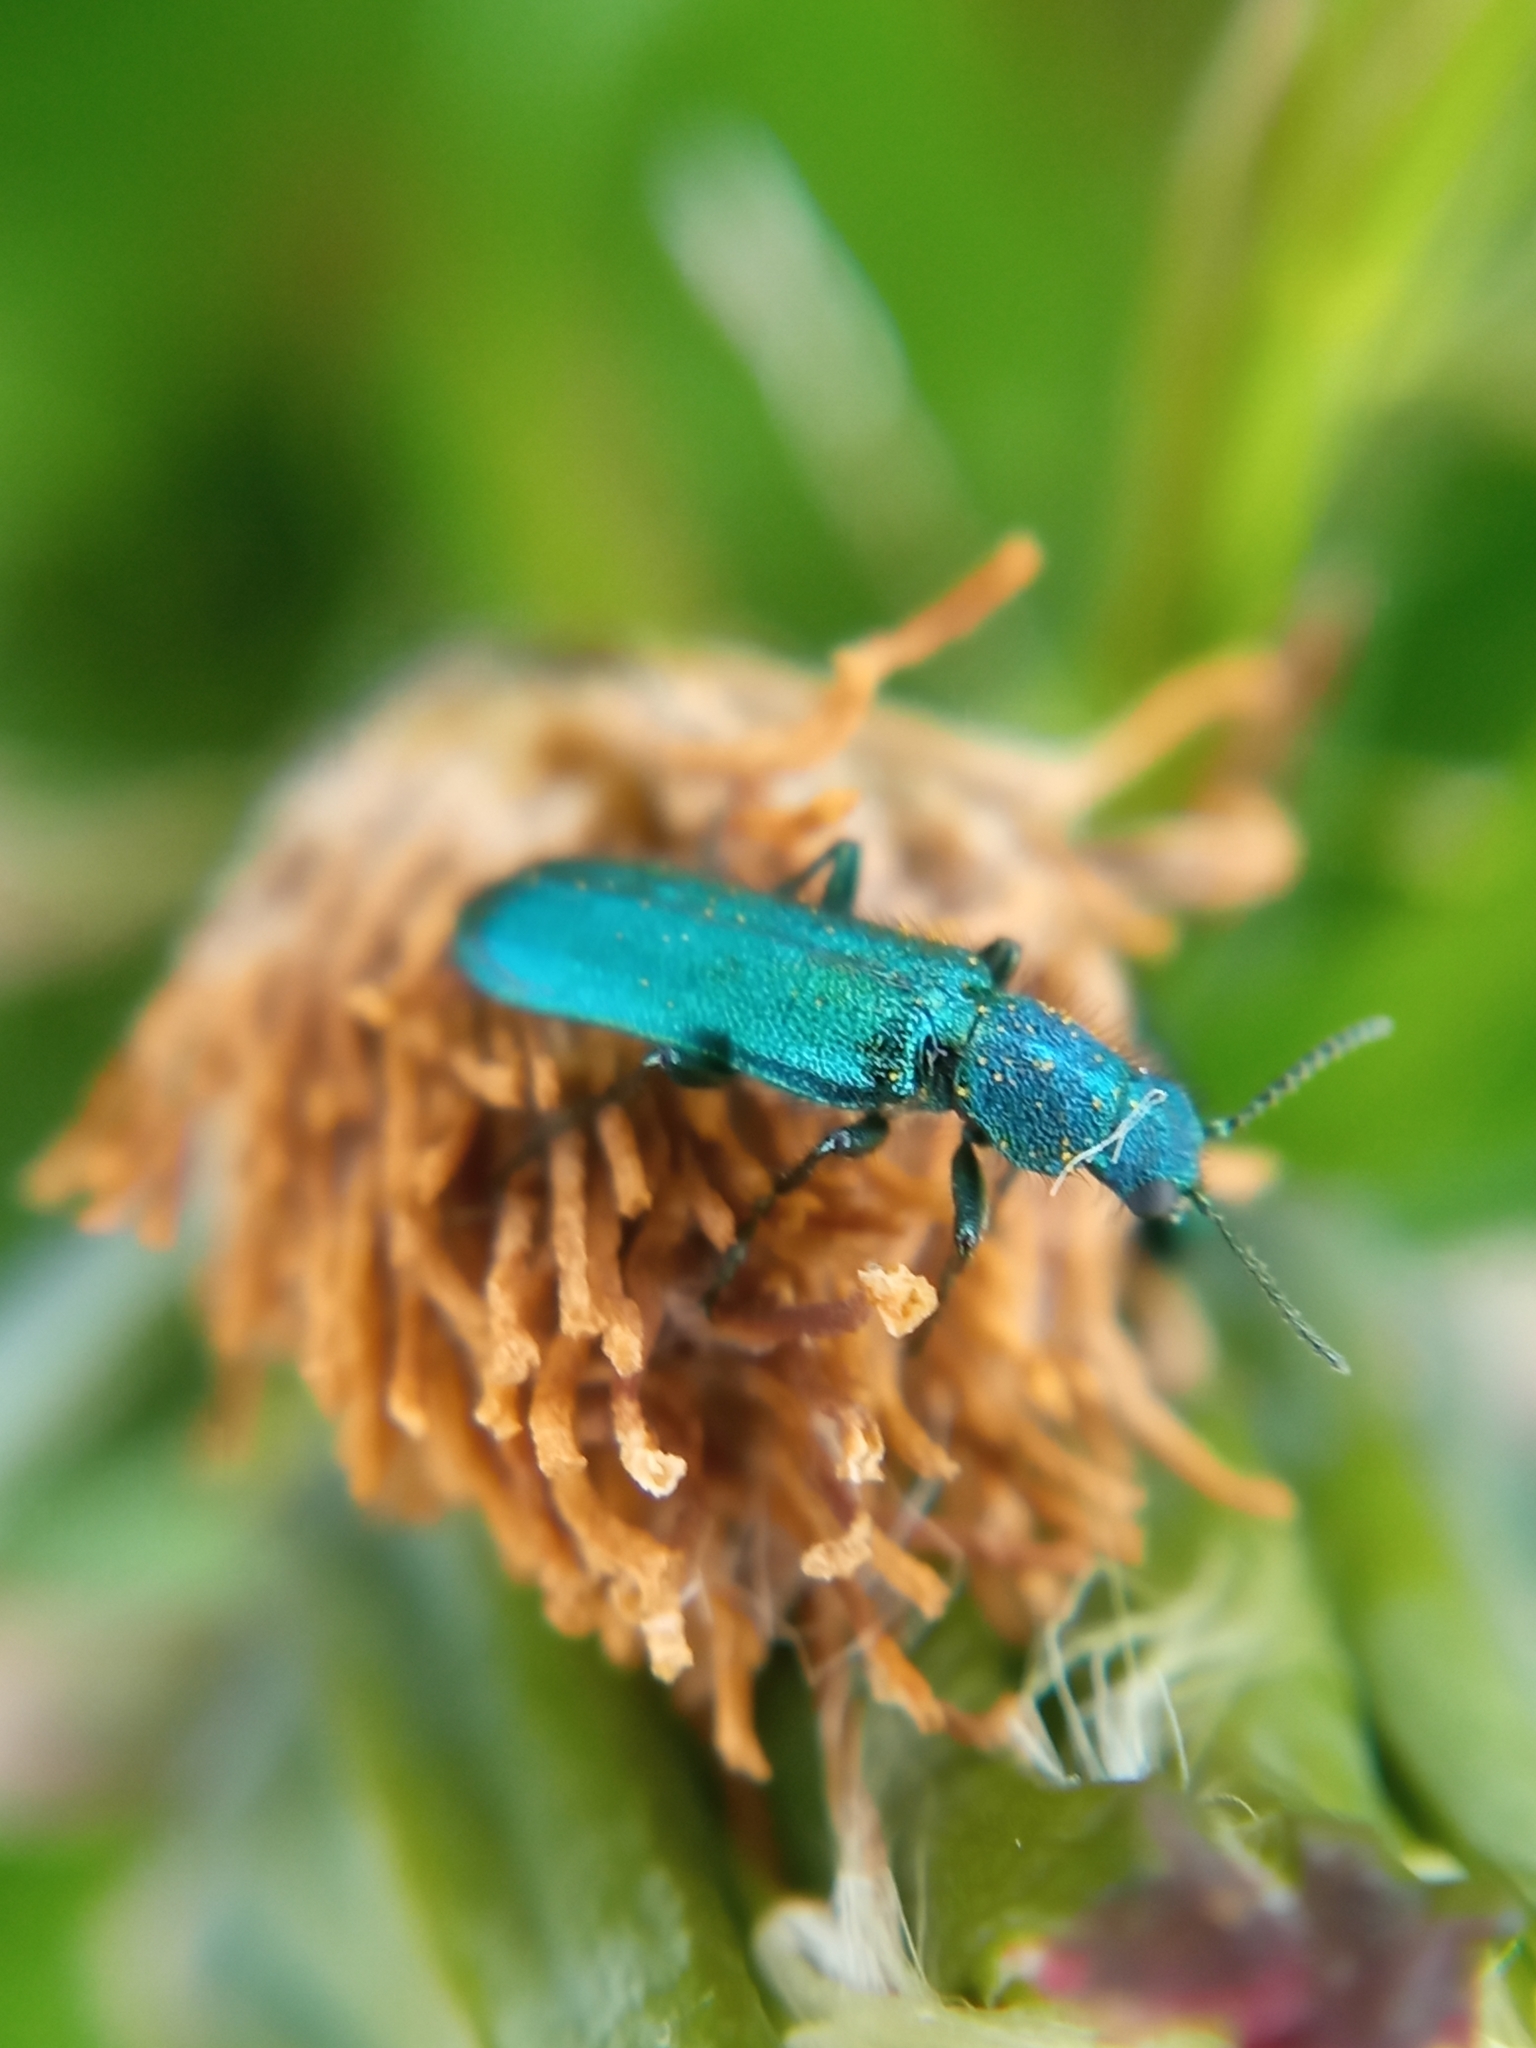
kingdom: Animalia
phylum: Arthropoda
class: Insecta
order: Coleoptera
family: Dasytidae
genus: Psilothrix
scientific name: Psilothrix viridicoerulea
